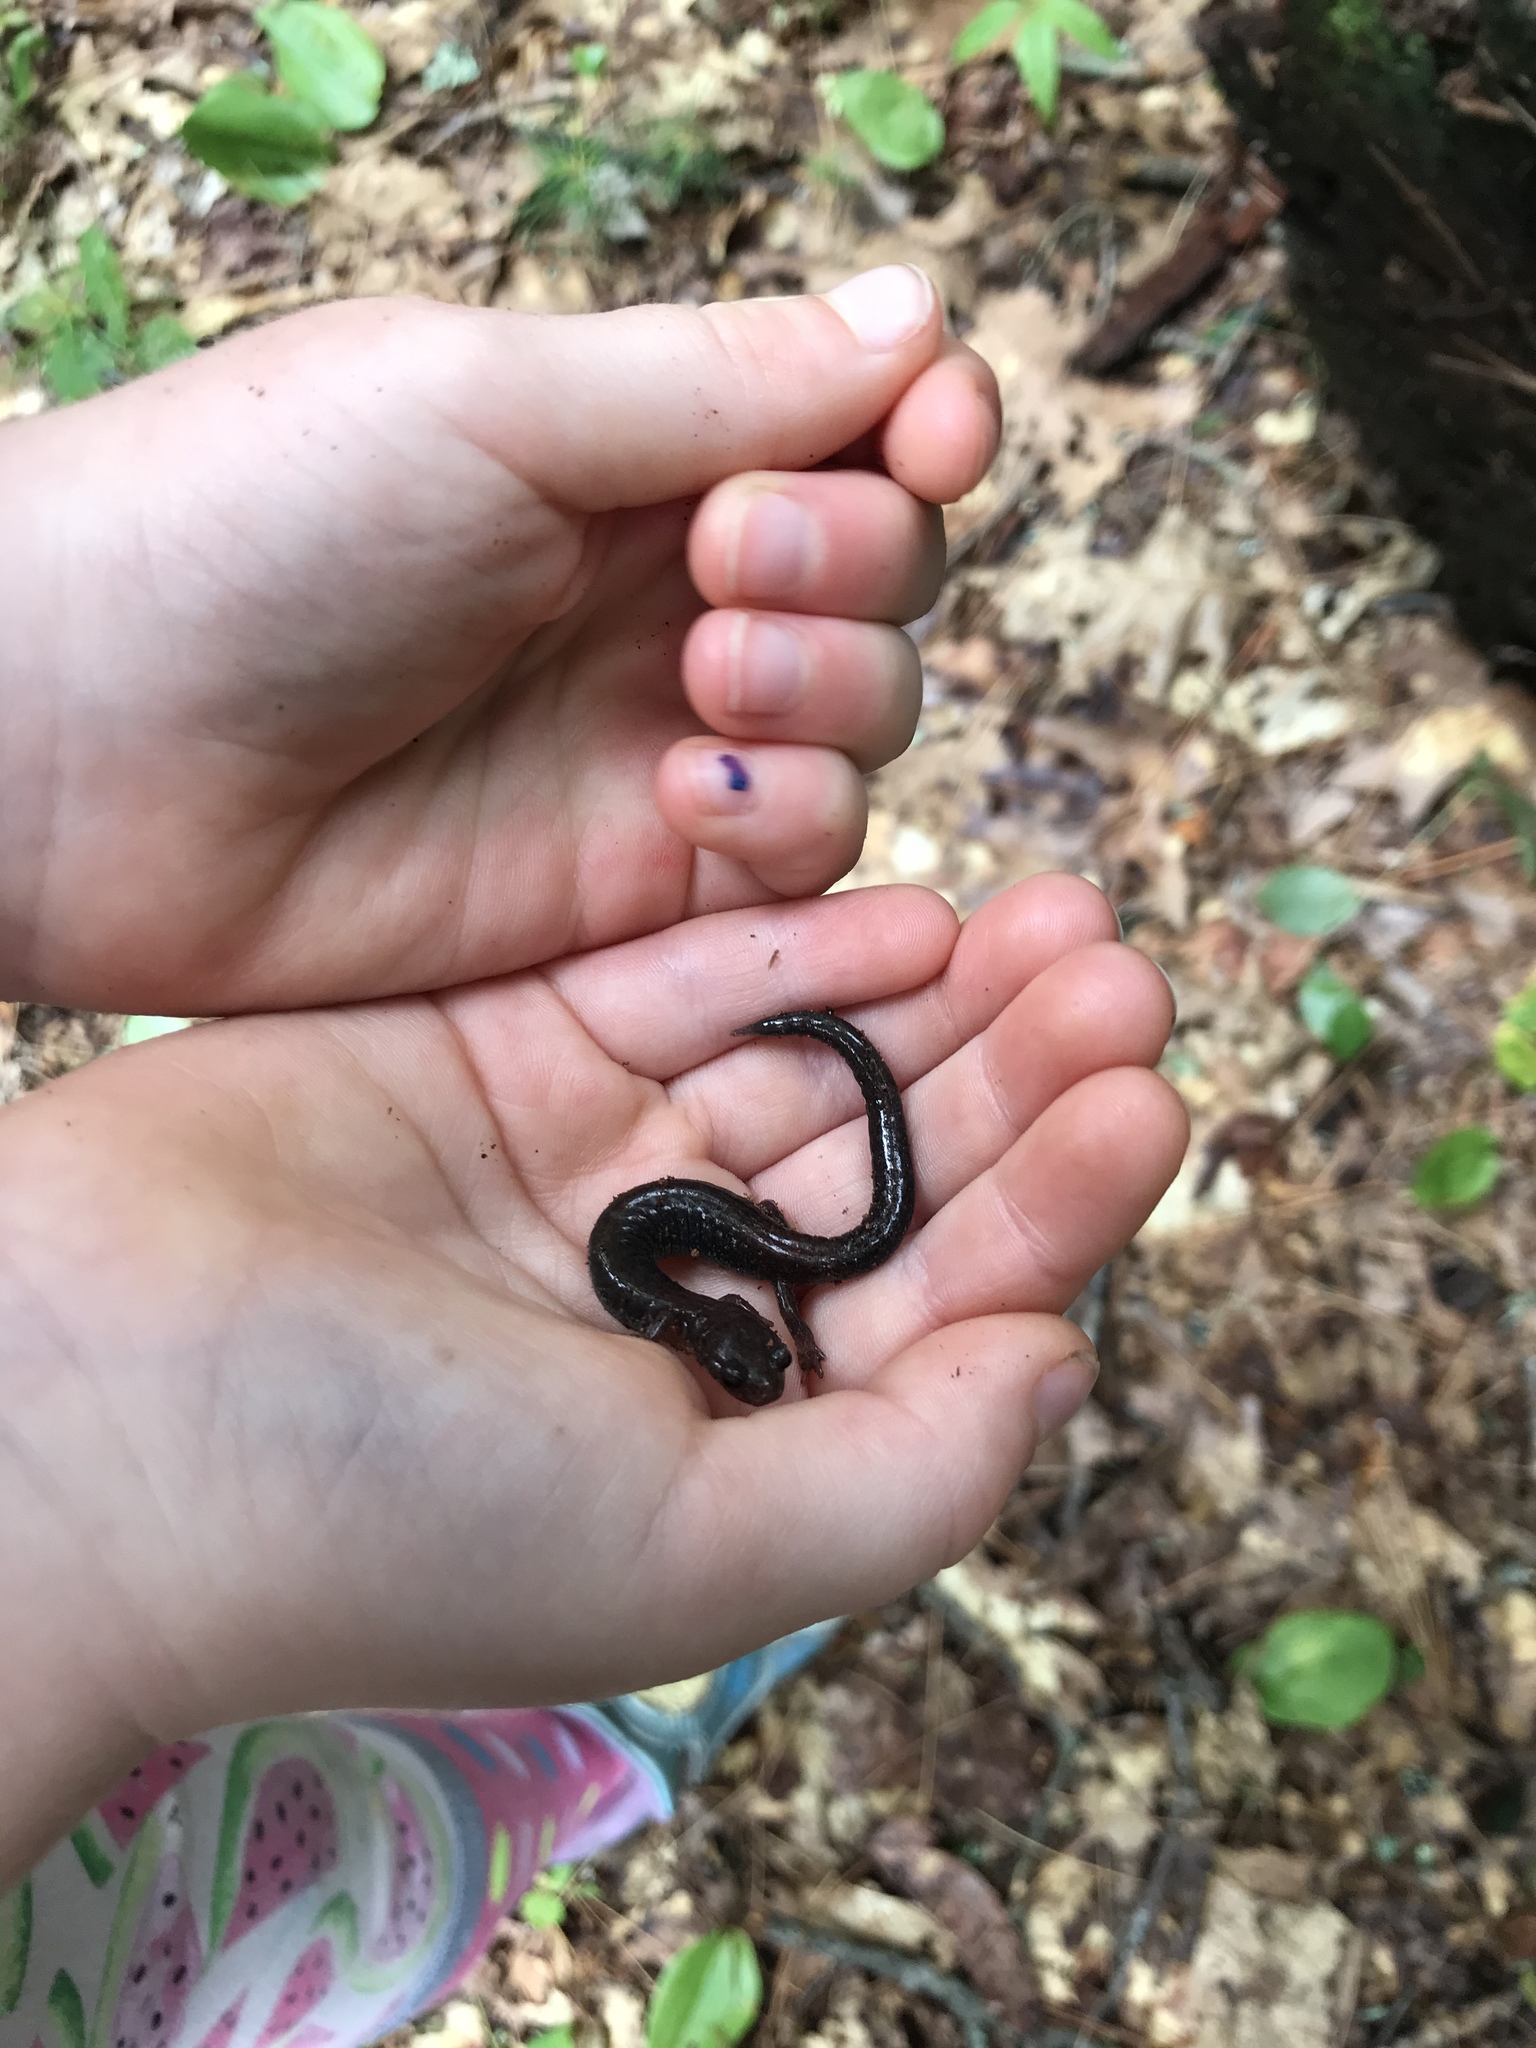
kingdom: Animalia
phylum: Chordata
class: Amphibia
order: Caudata
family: Plethodontidae
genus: Plethodon
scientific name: Plethodon cinereus
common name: Redback salamander
